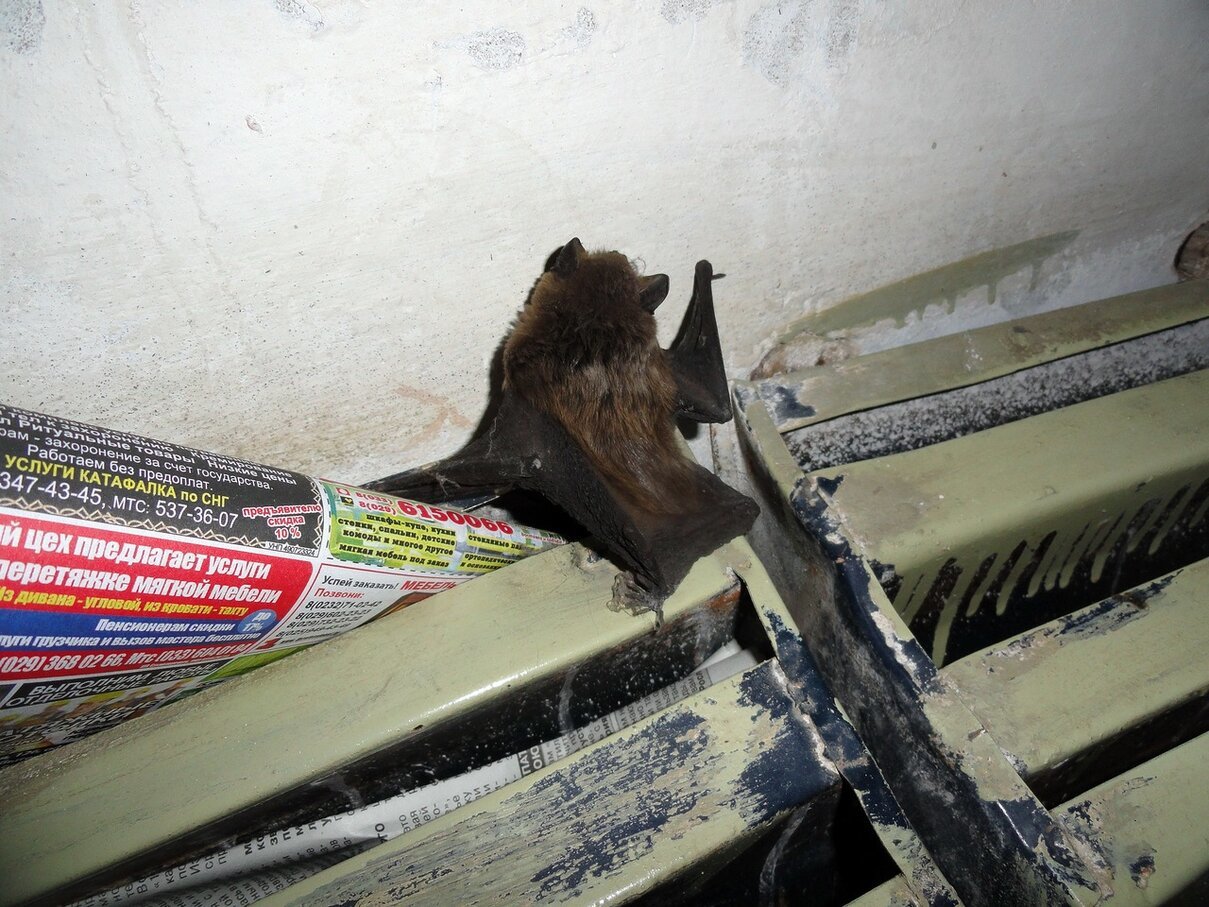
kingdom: Animalia
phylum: Chordata
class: Mammalia
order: Chiroptera
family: Vespertilionidae
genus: Eptesicus
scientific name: Eptesicus serotinus
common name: Serotine
